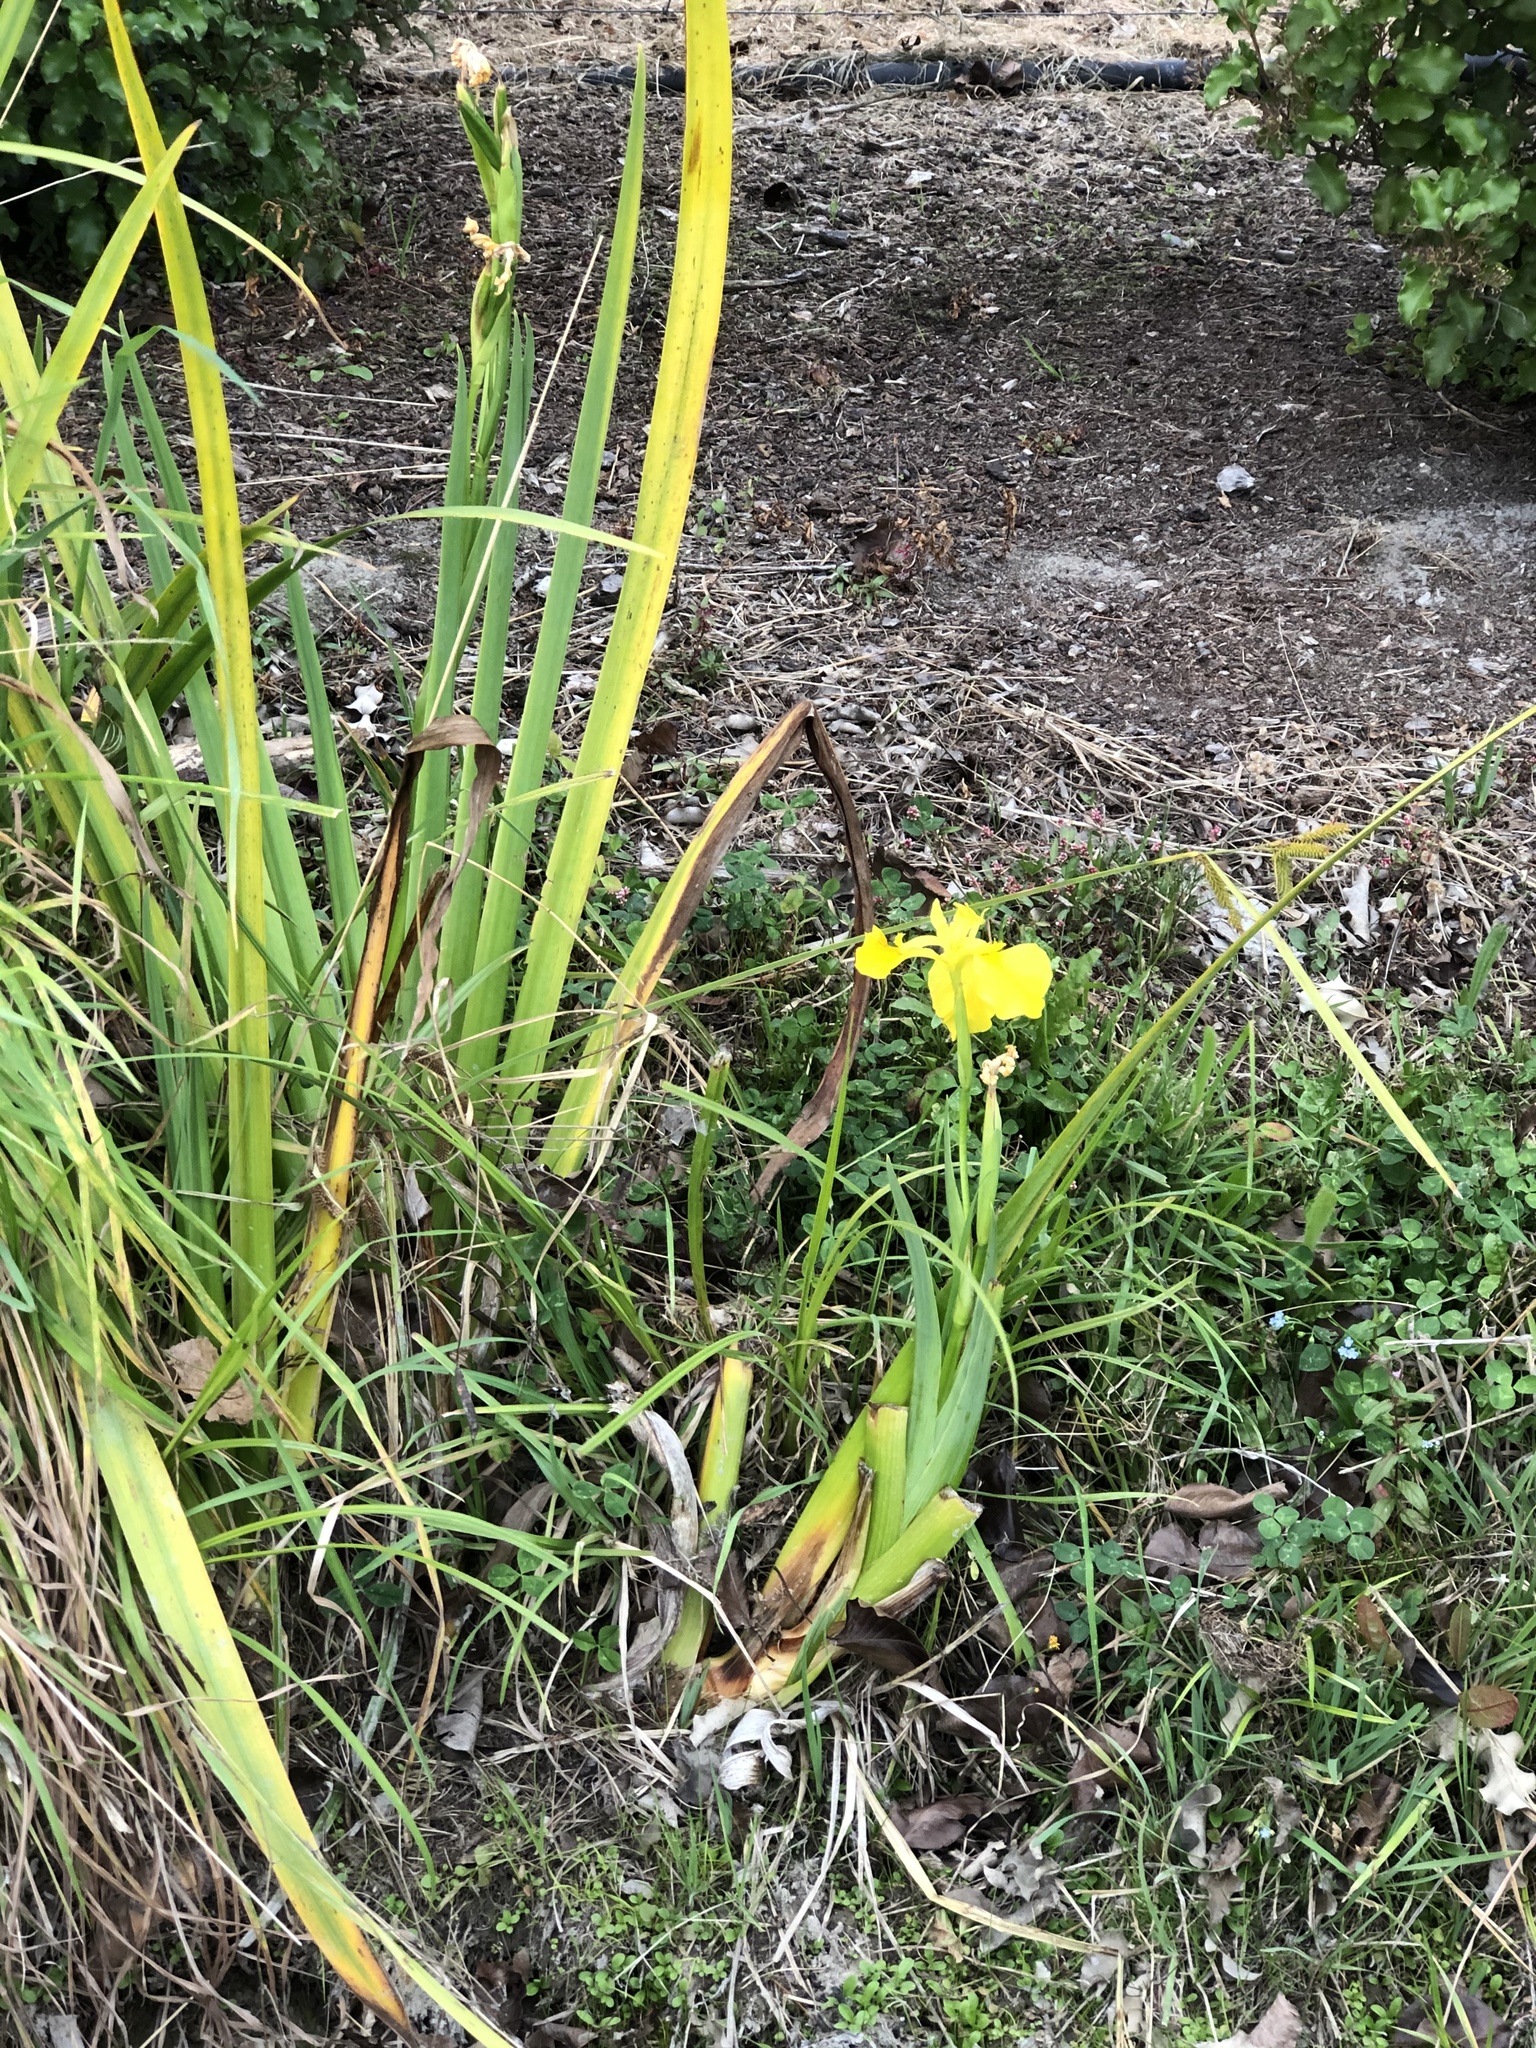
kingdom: Plantae
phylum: Tracheophyta
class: Liliopsida
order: Asparagales
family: Iridaceae
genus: Iris
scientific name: Iris pseudacorus
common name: Yellow flag
